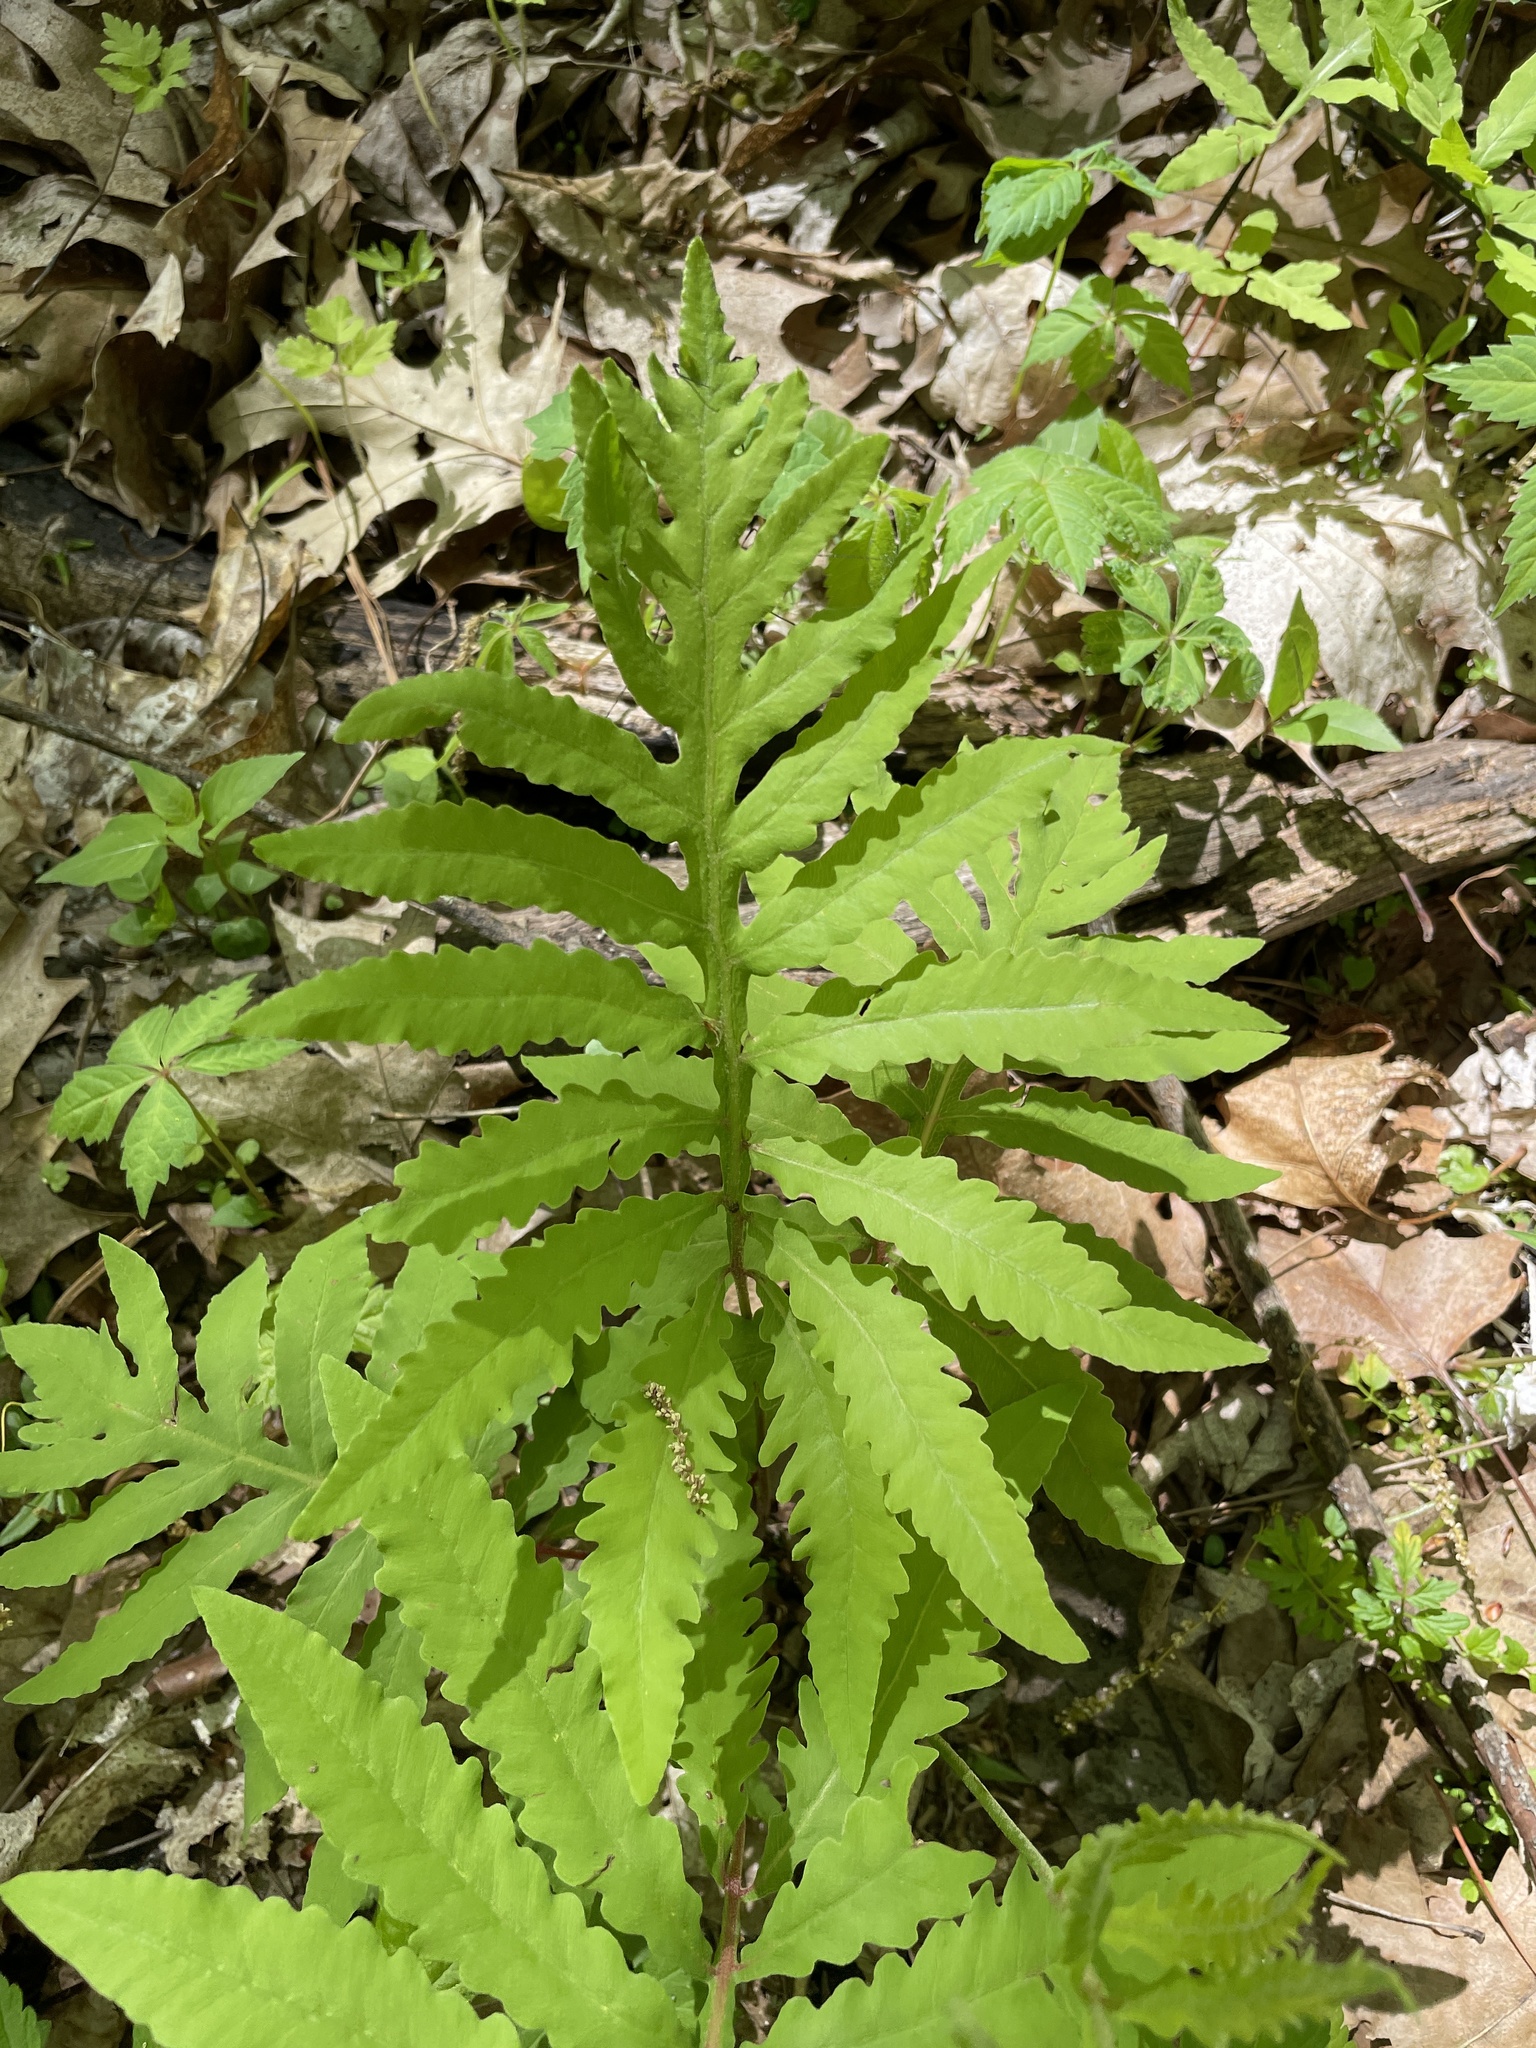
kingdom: Plantae
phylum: Tracheophyta
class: Polypodiopsida
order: Polypodiales
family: Onocleaceae
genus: Onoclea
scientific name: Onoclea sensibilis
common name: Sensitive fern
